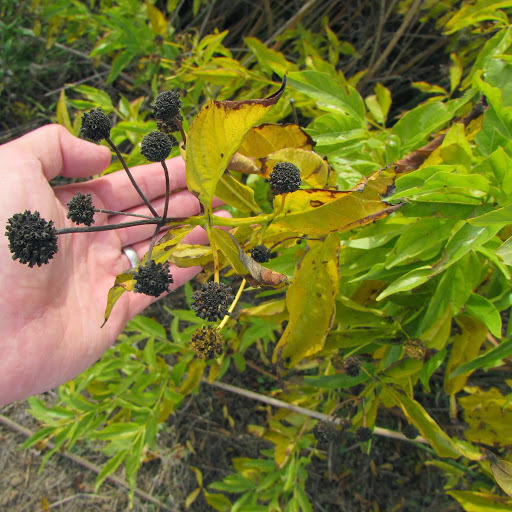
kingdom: Plantae
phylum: Tracheophyta
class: Magnoliopsida
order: Gentianales
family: Rubiaceae
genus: Cephalanthus
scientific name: Cephalanthus occidentalis
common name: Button-willow
